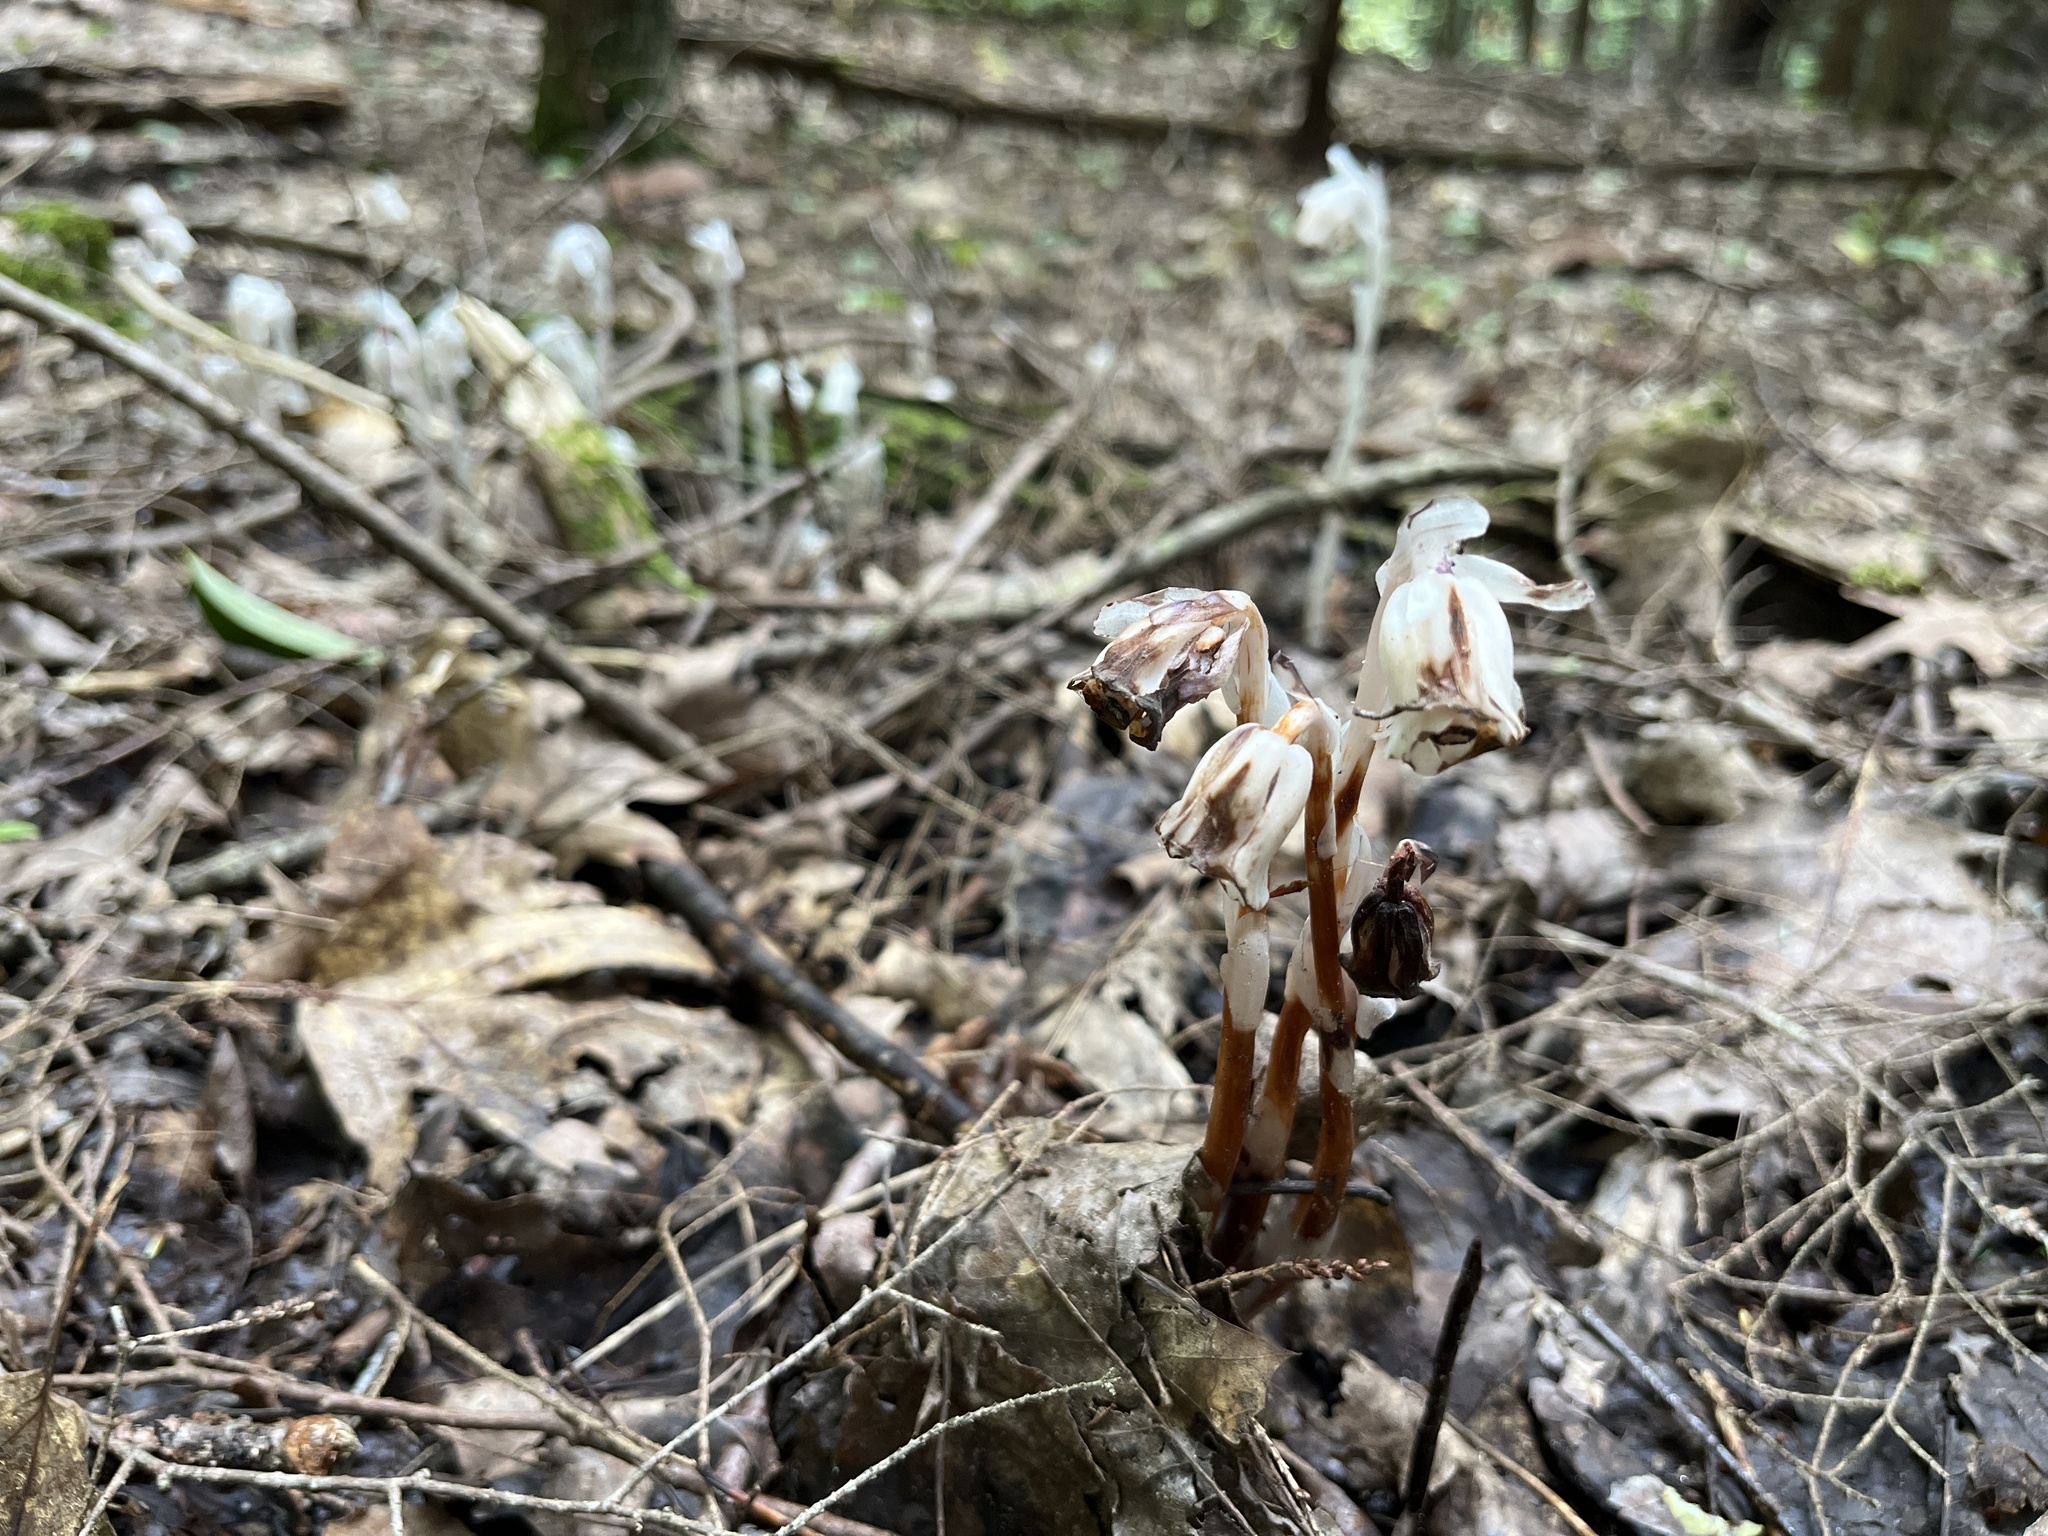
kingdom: Plantae
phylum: Tracheophyta
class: Magnoliopsida
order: Ericales
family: Ericaceae
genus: Monotropa
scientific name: Monotropa uniflora
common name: Convulsion root
